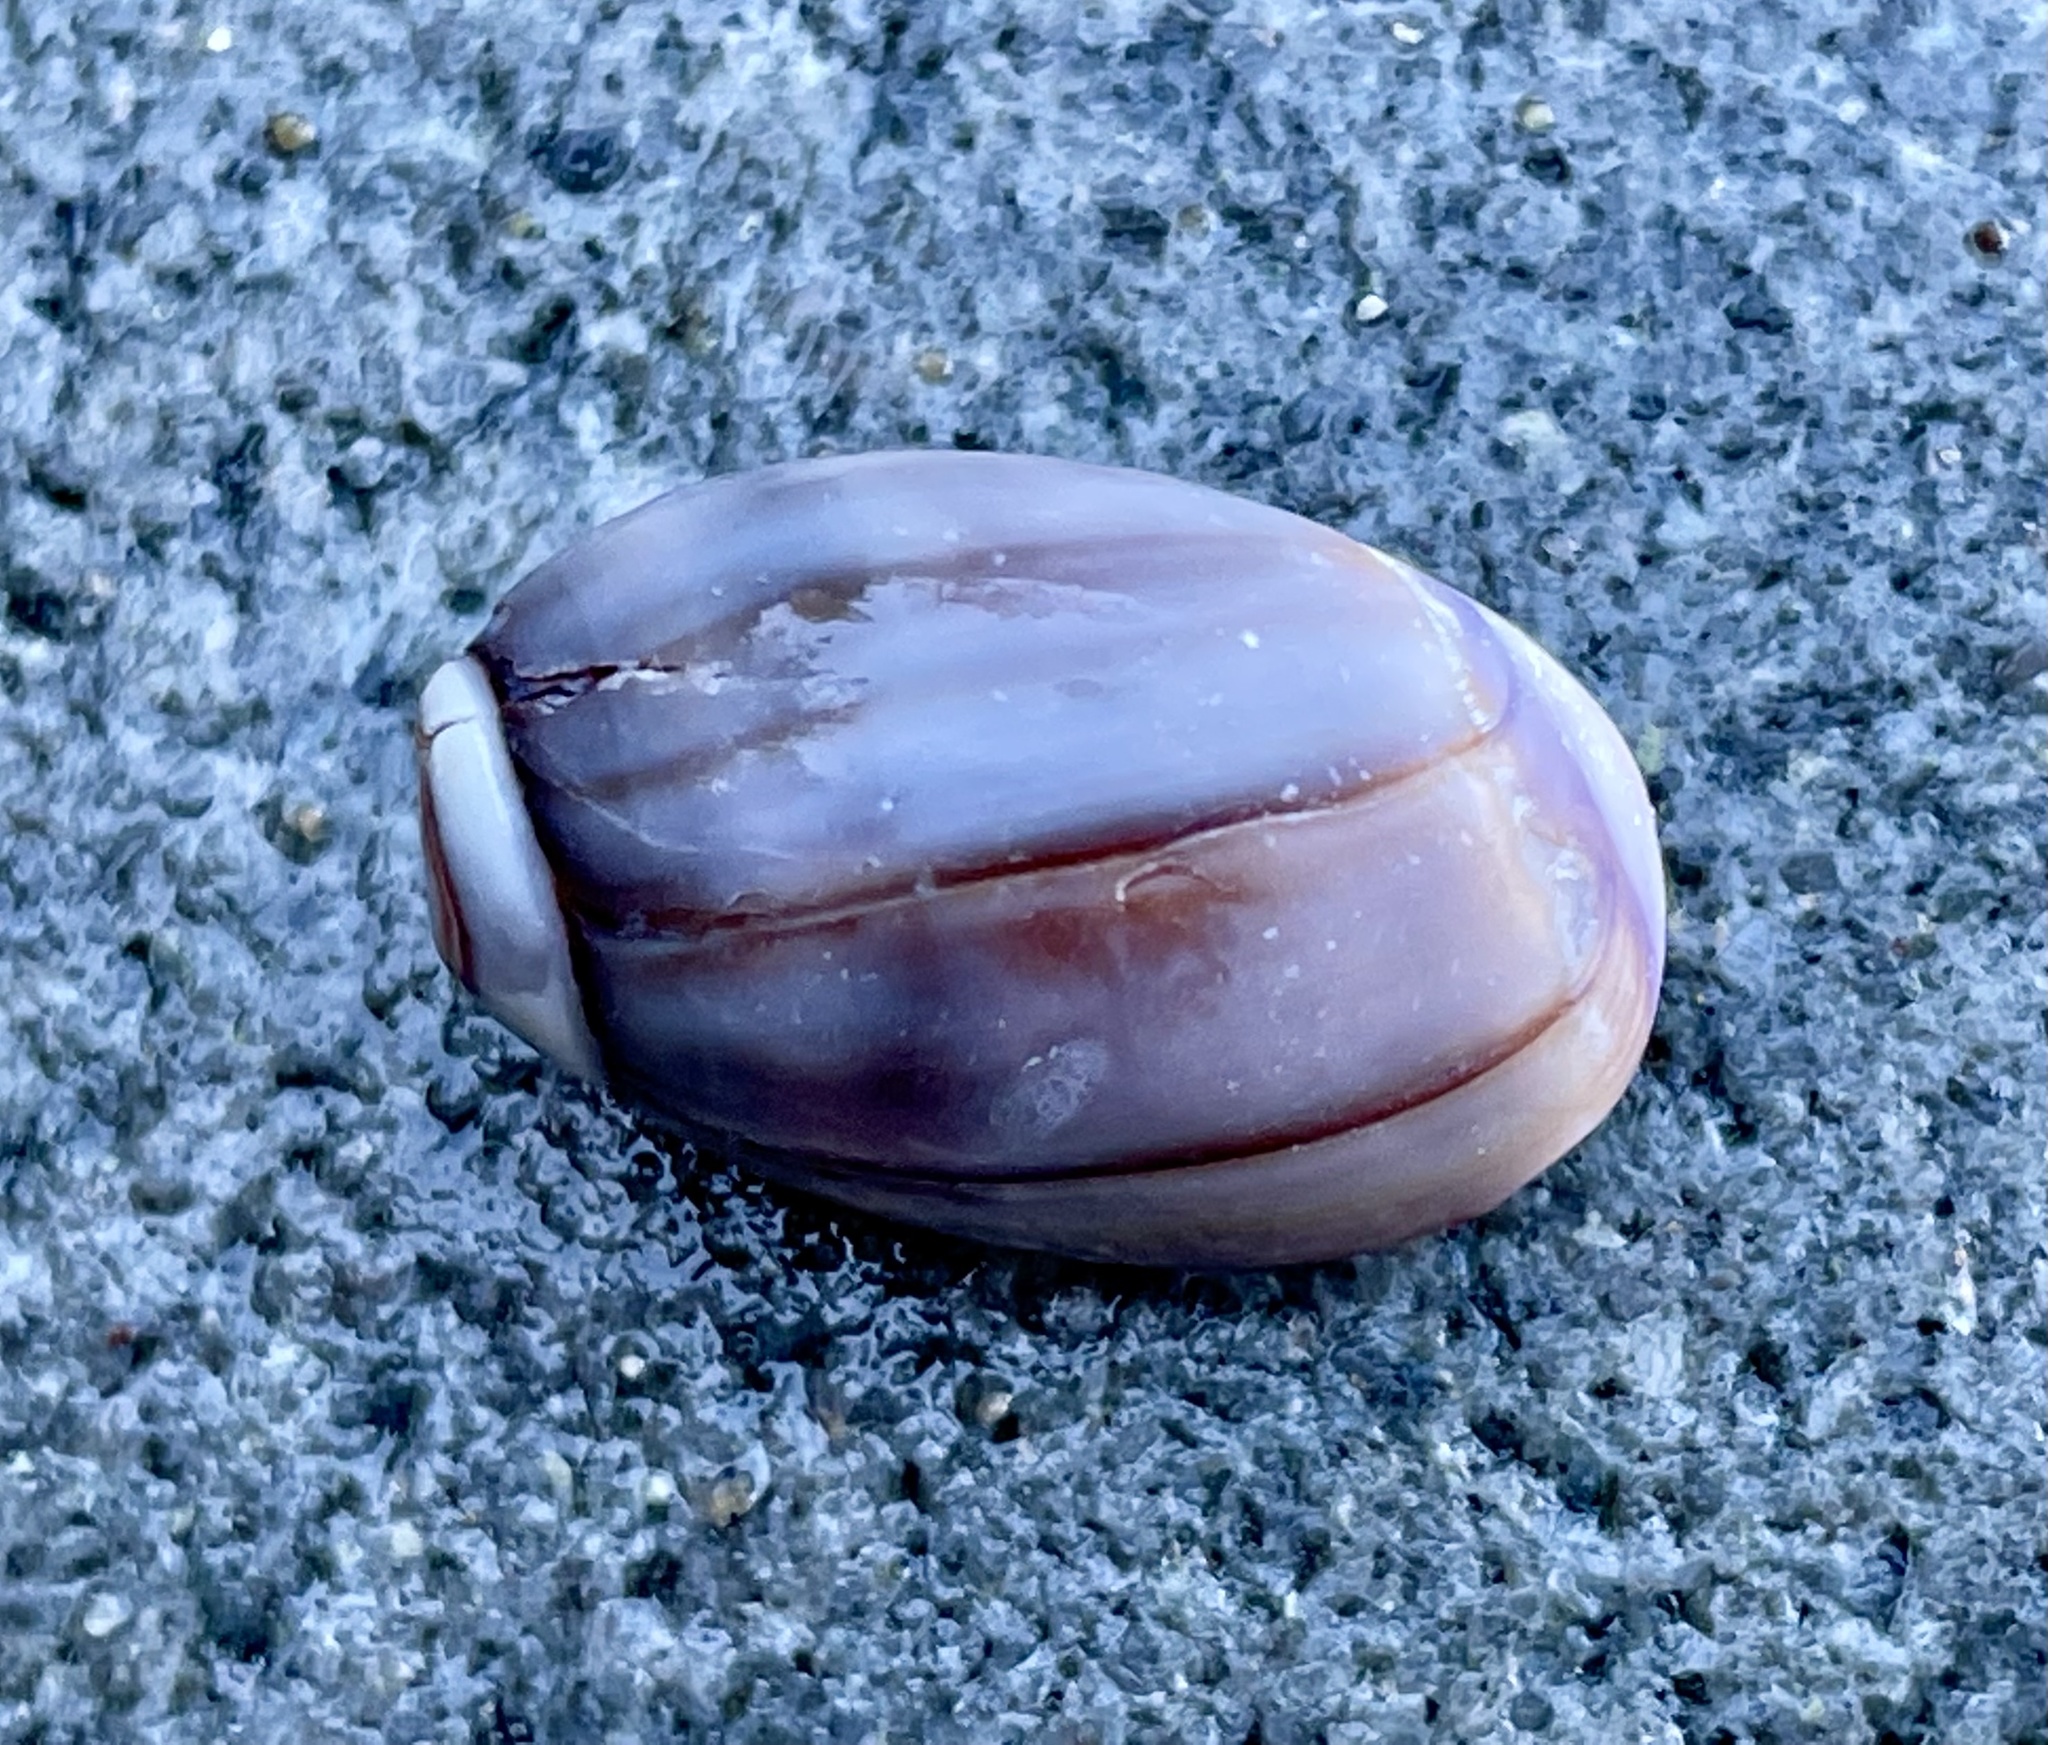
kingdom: Animalia
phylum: Mollusca
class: Gastropoda
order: Neogastropoda
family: Olividae
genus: Callianax
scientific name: Callianax biplicata
